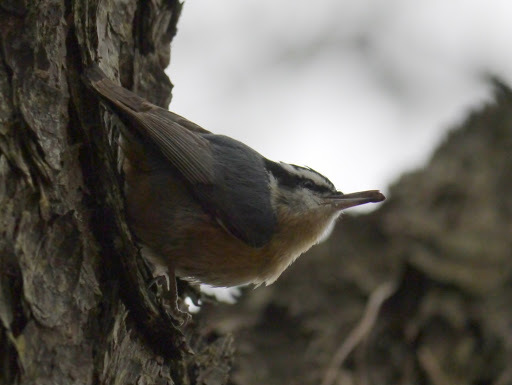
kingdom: Animalia
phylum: Chordata
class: Aves
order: Passeriformes
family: Sittidae
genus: Sitta
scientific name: Sitta canadensis
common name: Red-breasted nuthatch
